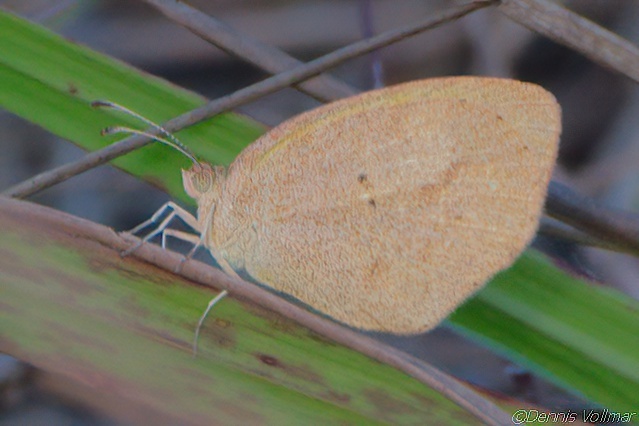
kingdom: Animalia
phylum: Arthropoda
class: Insecta
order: Lepidoptera
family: Pieridae
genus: Eurema
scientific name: Eurema daira
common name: Barred sulphur
